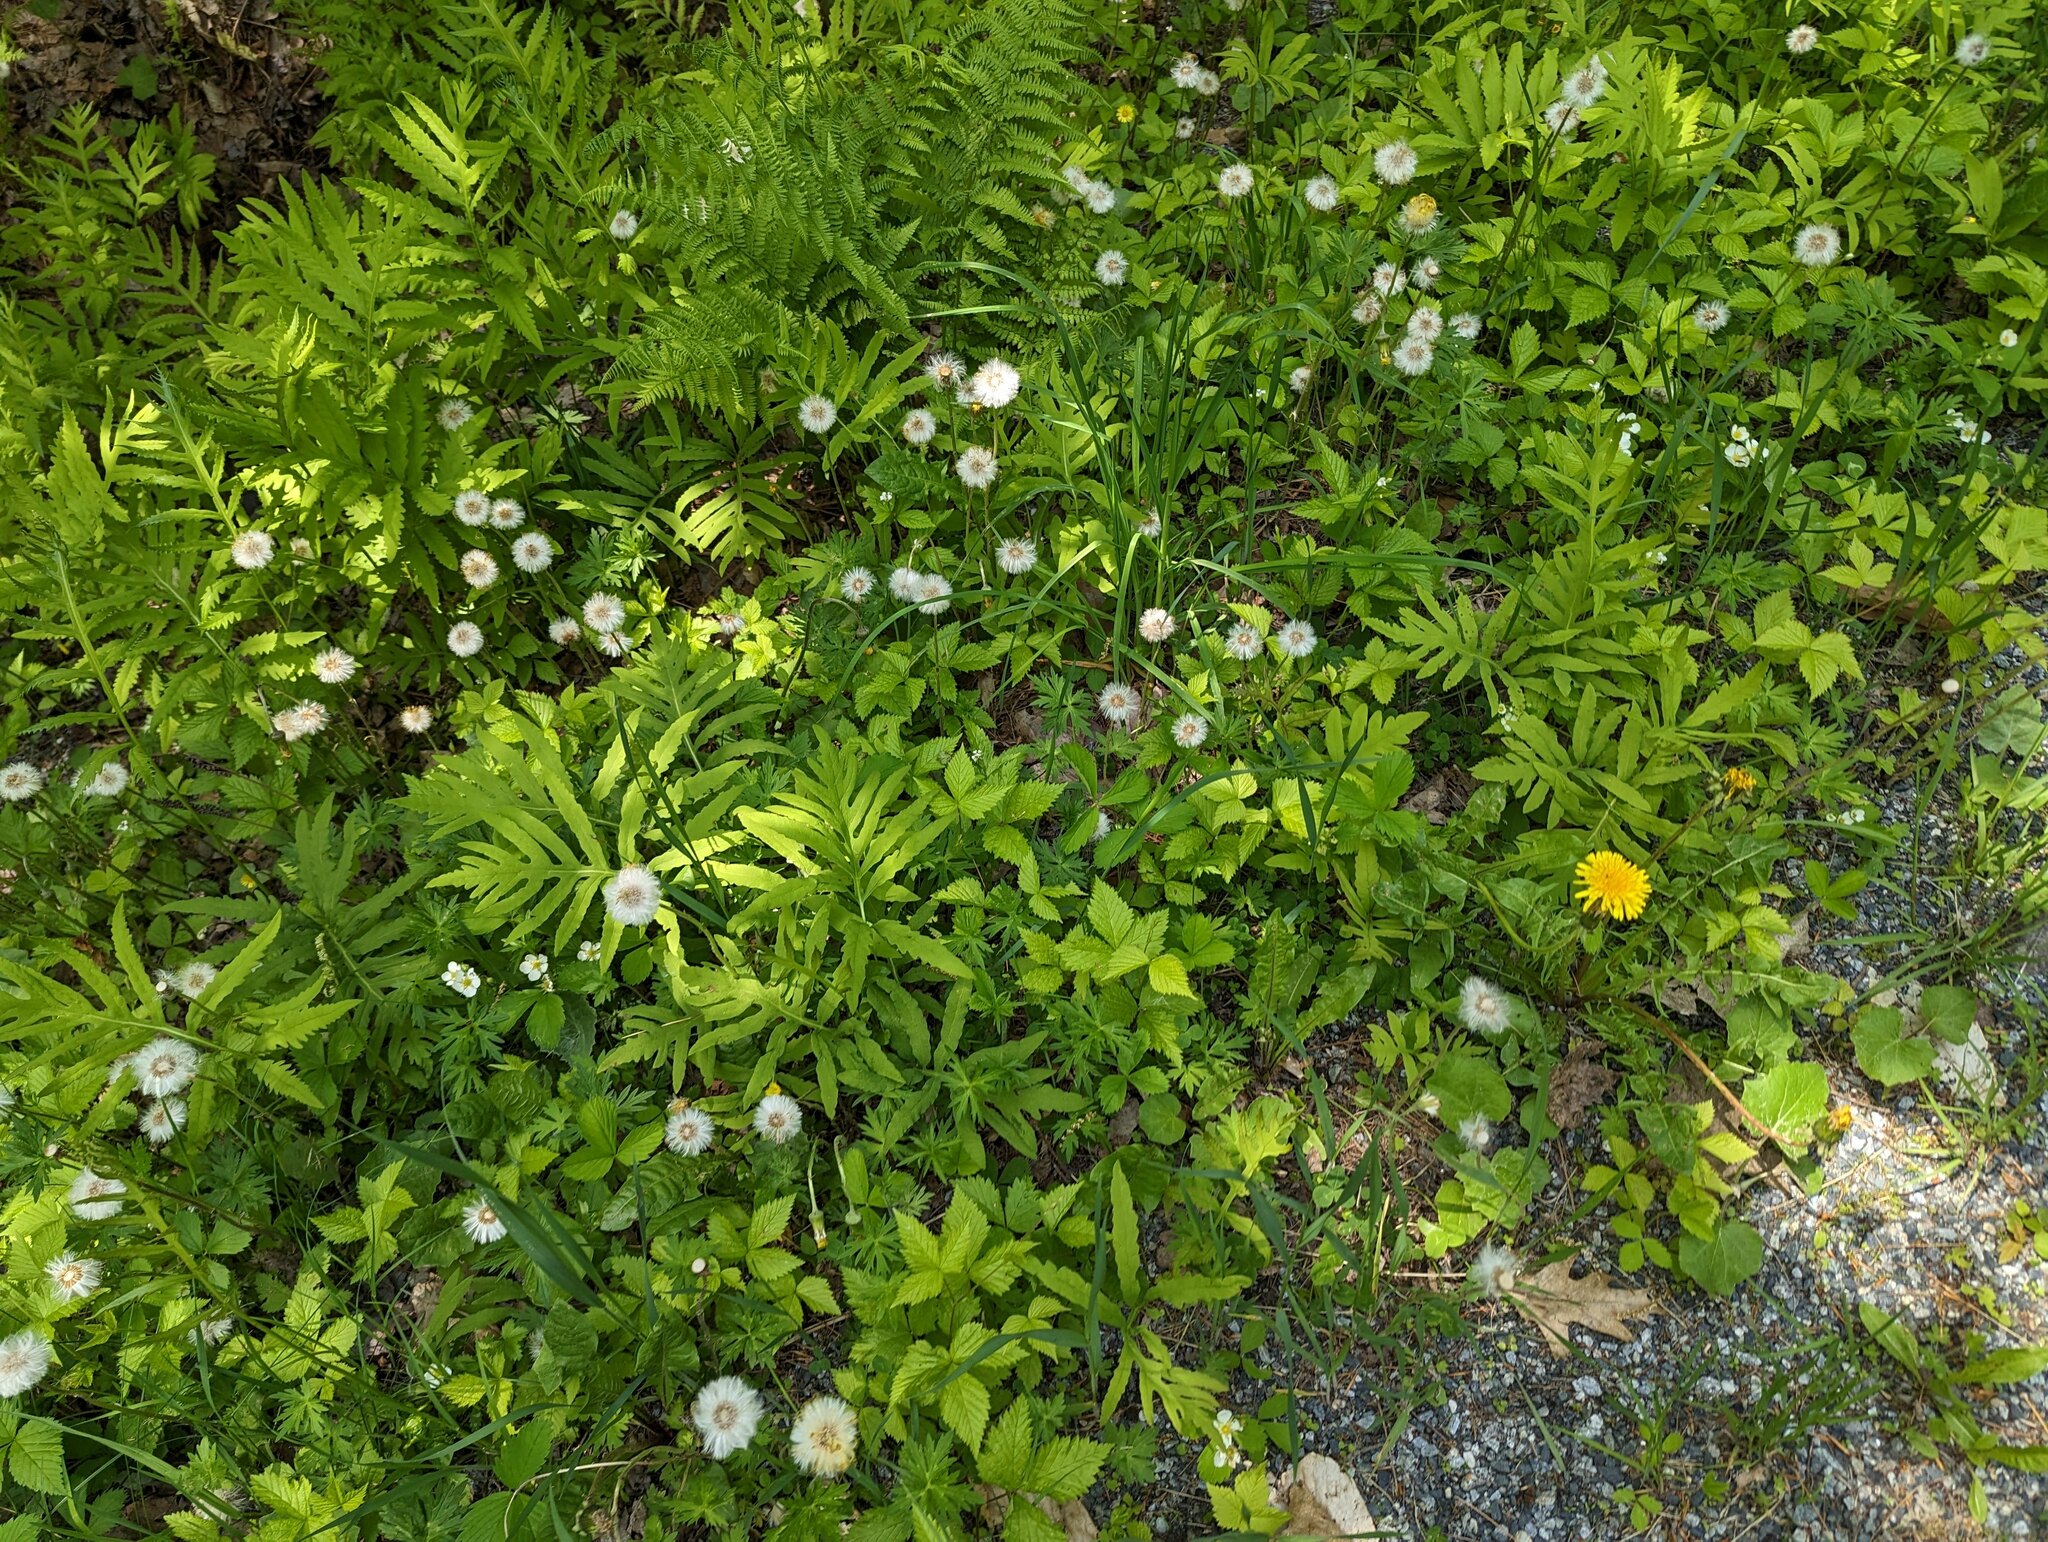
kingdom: Plantae
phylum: Tracheophyta
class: Polypodiopsida
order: Polypodiales
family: Onocleaceae
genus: Onoclea
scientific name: Onoclea sensibilis
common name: Sensitive fern
